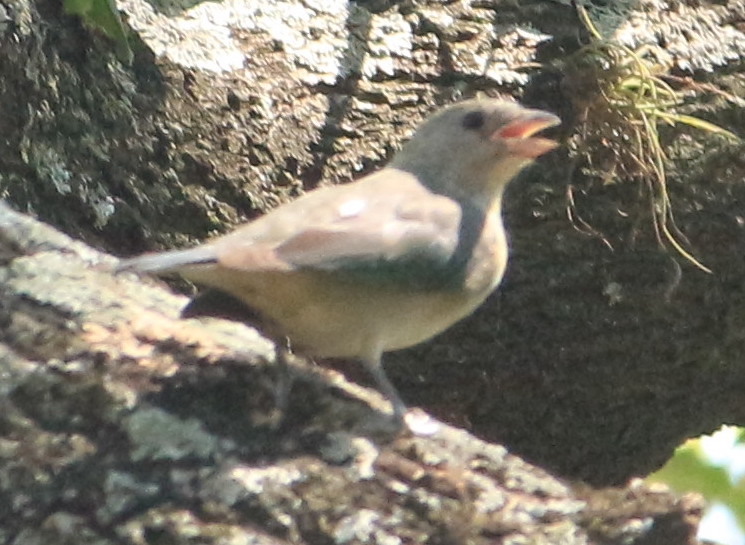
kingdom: Animalia
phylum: Chordata
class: Aves
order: Passeriformes
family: Thraupidae
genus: Thraupis
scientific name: Thraupis sayaca
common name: Sayaca tanager
